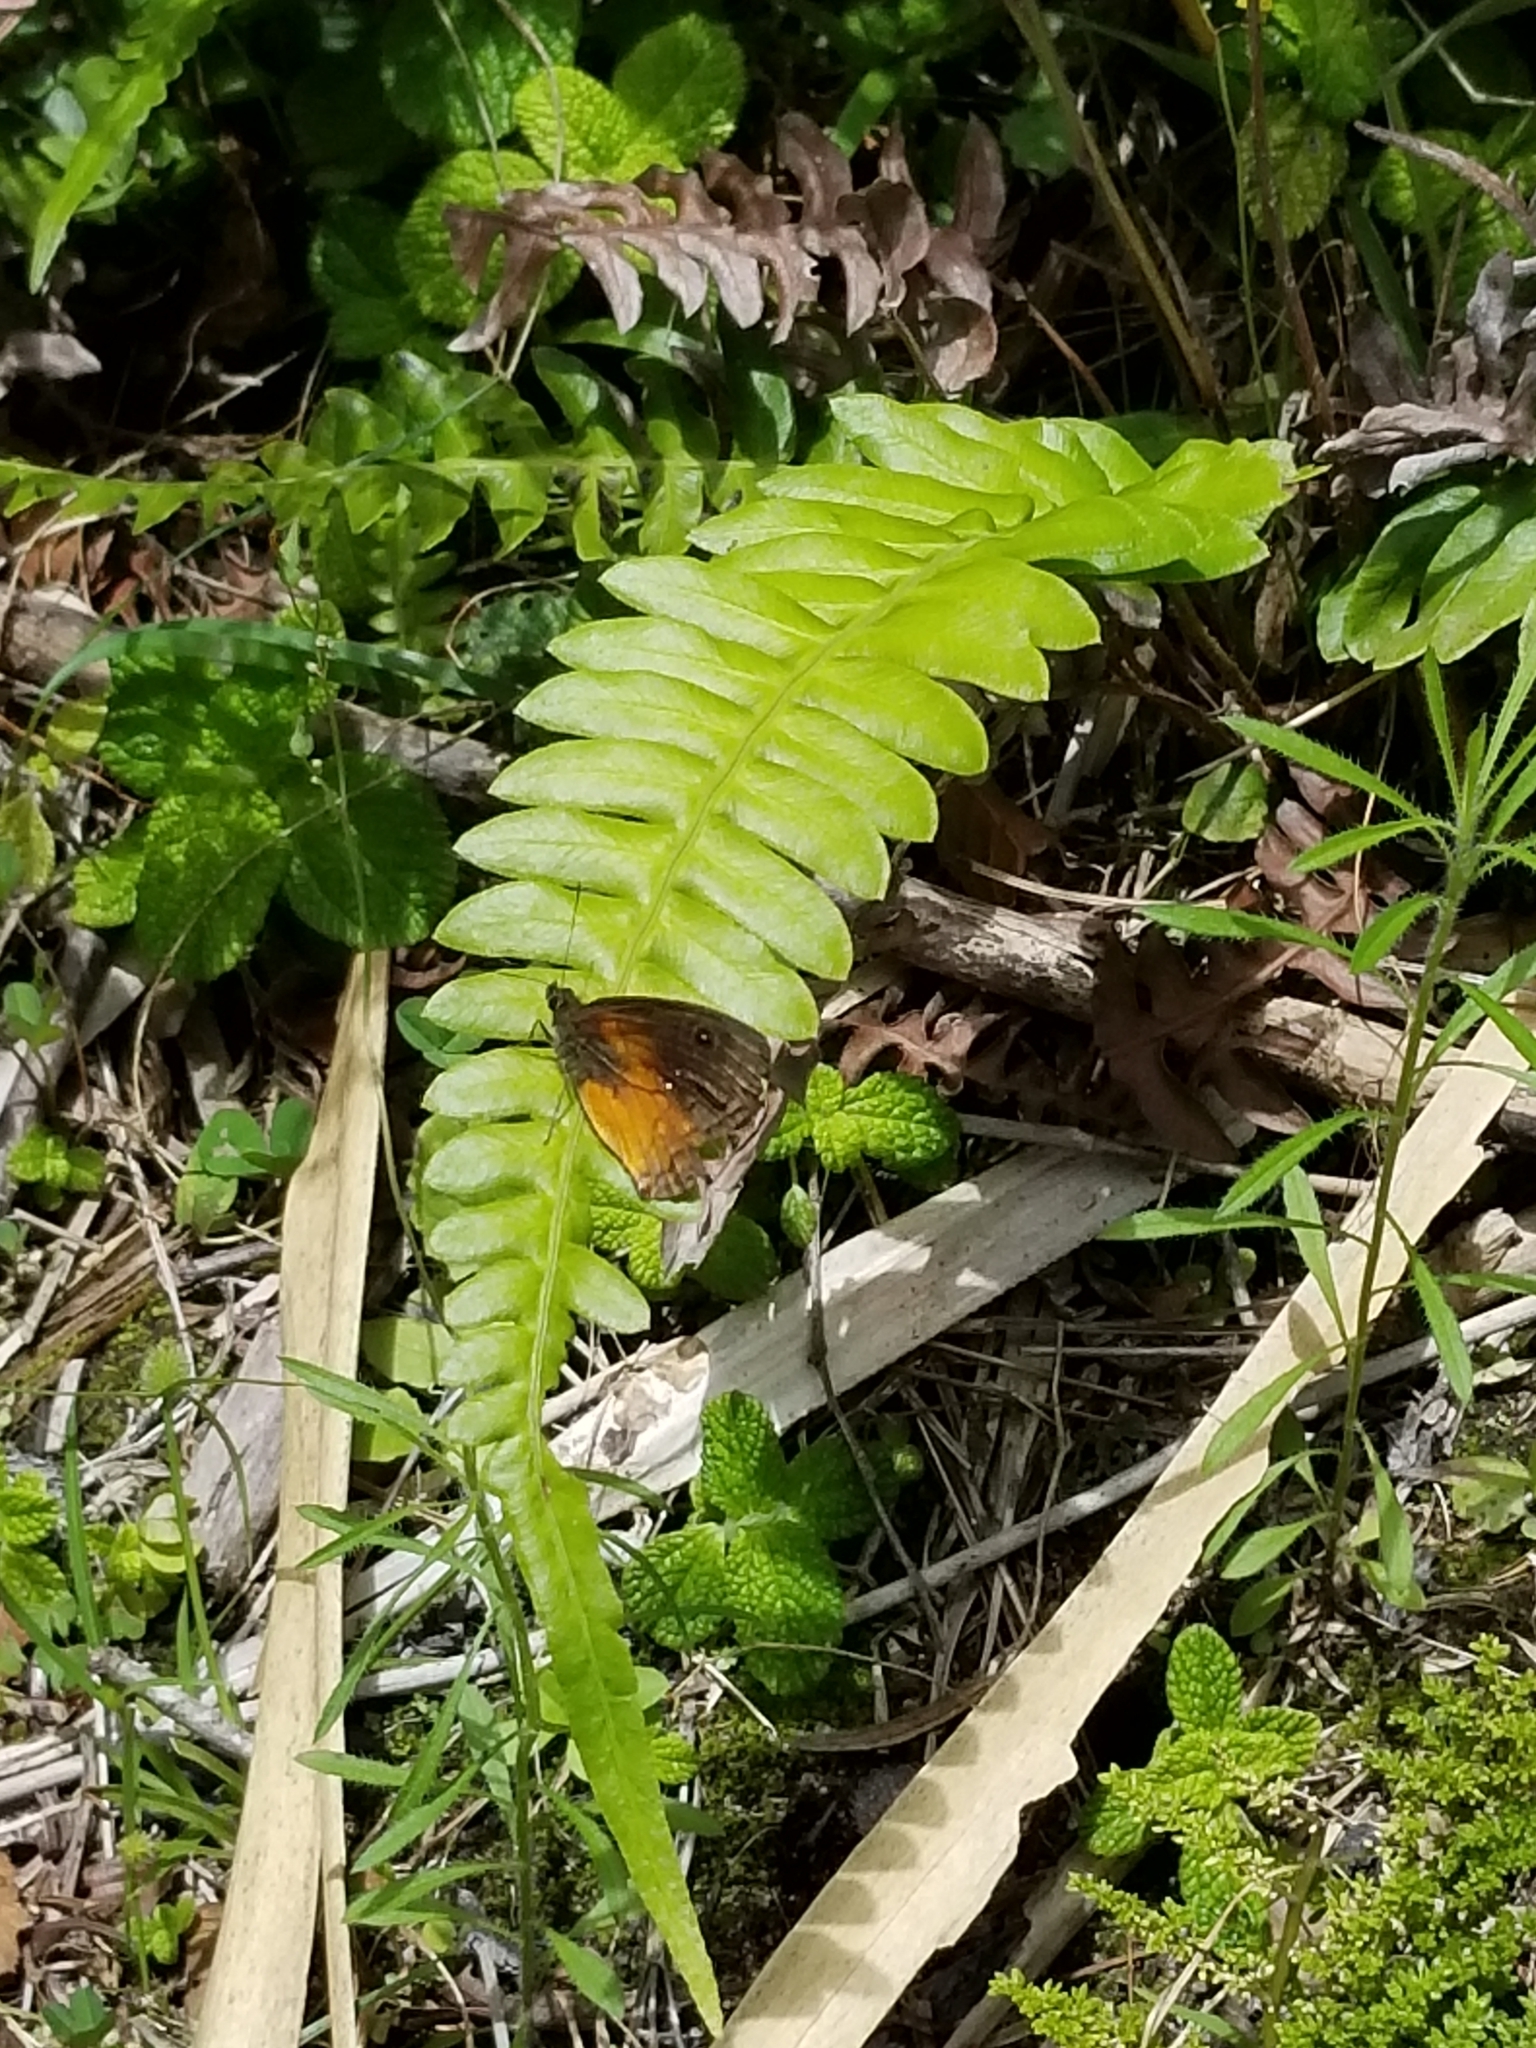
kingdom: Animalia
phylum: Arthropoda
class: Insecta
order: Lepidoptera
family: Nymphalidae
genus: Calisto
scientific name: Calisto pulchella
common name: Sugar cane calisto
